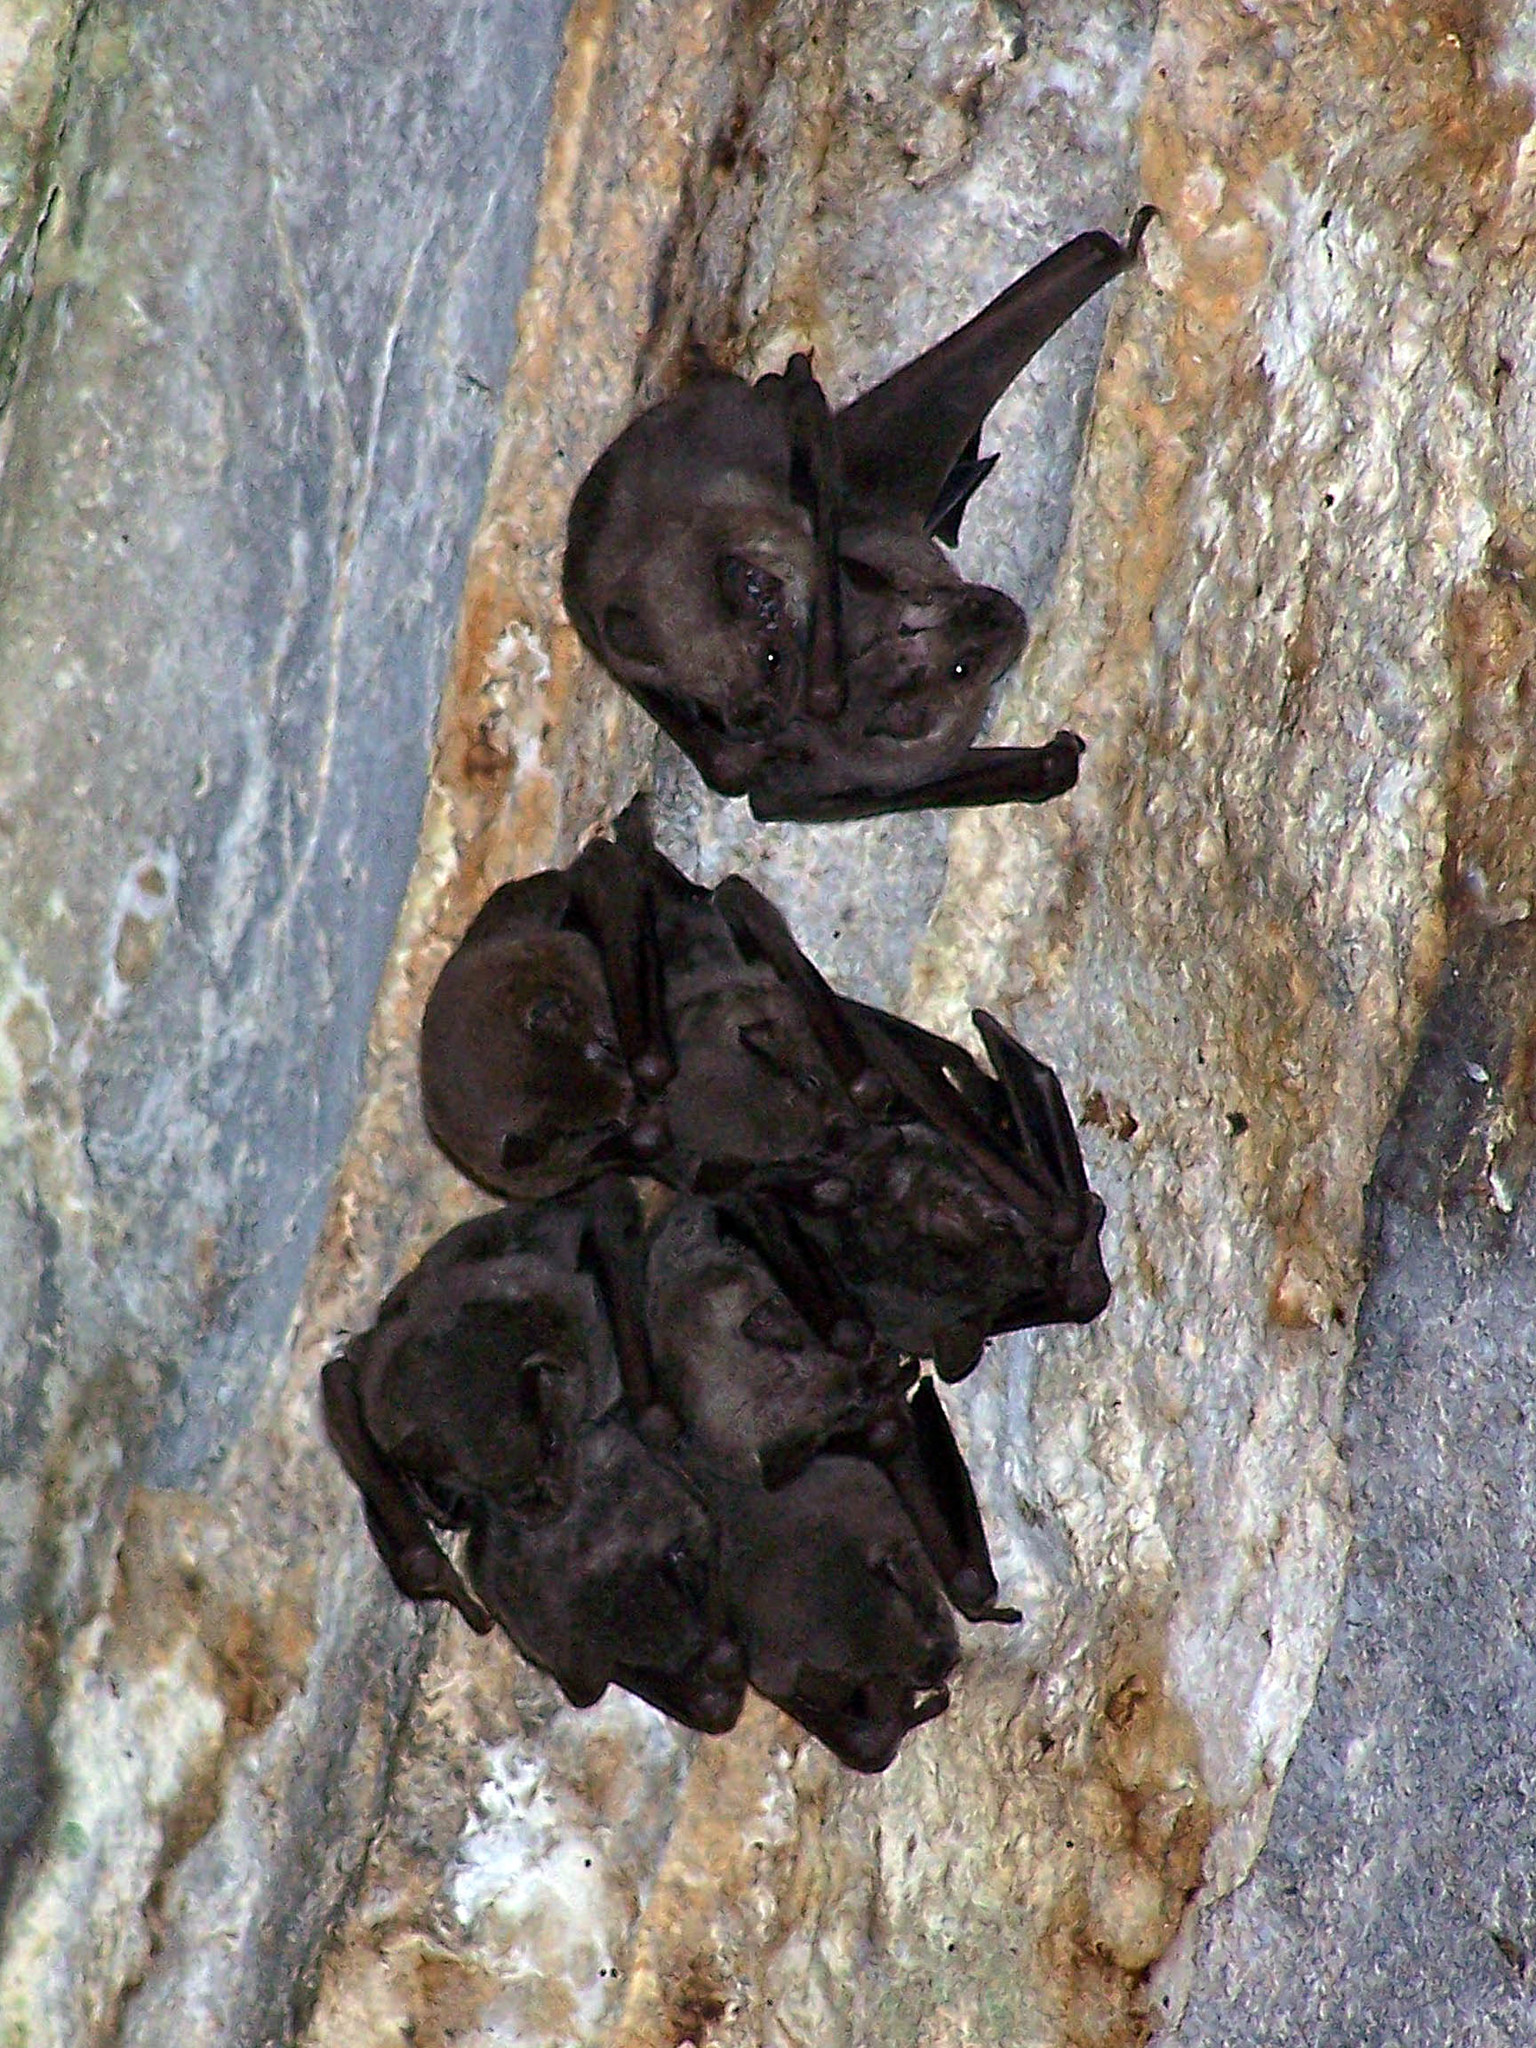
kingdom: Animalia
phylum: Chordata
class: Mammalia
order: Chiroptera
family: Phyllostomidae
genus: Artibeus
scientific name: Artibeus jamaicensis
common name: Jamaican fruit-eating bat
